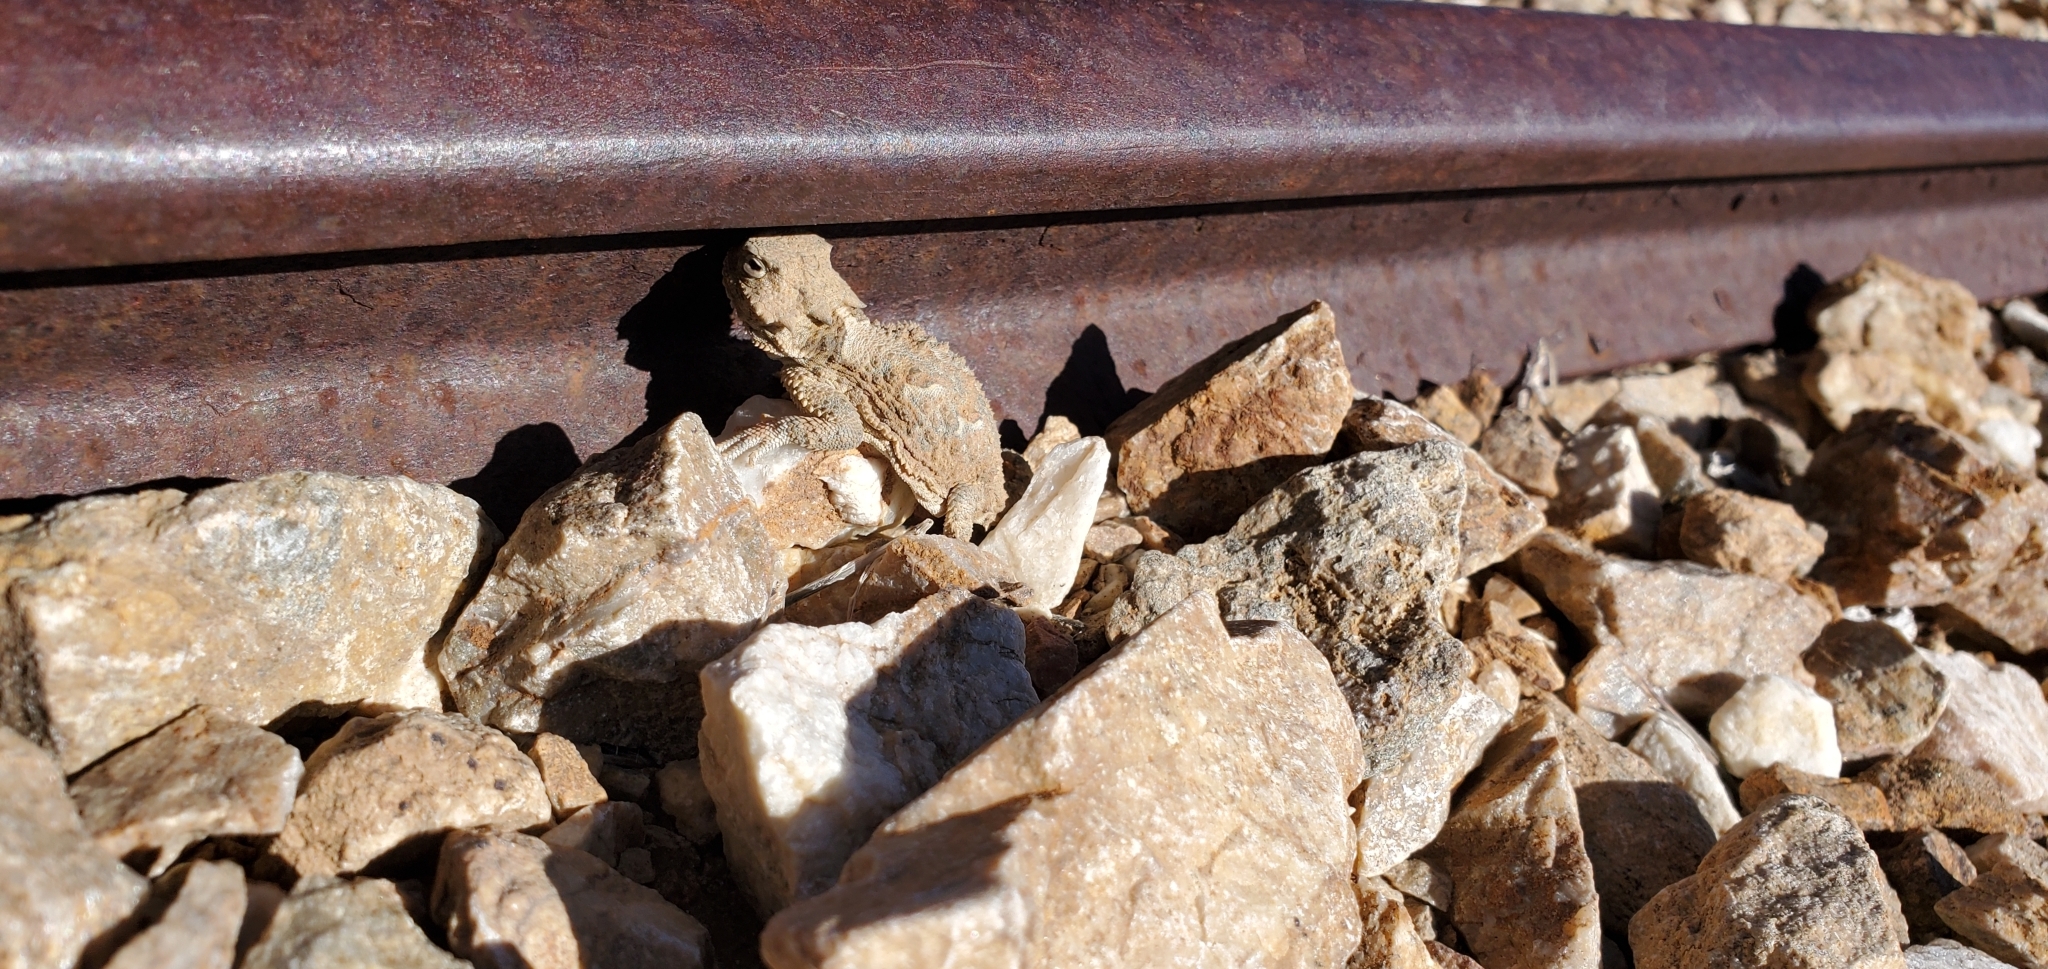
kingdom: Animalia
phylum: Chordata
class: Squamata
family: Phrynosomatidae
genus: Phrynosoma
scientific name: Phrynosoma platyrhinos
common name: Desert horned lizard
